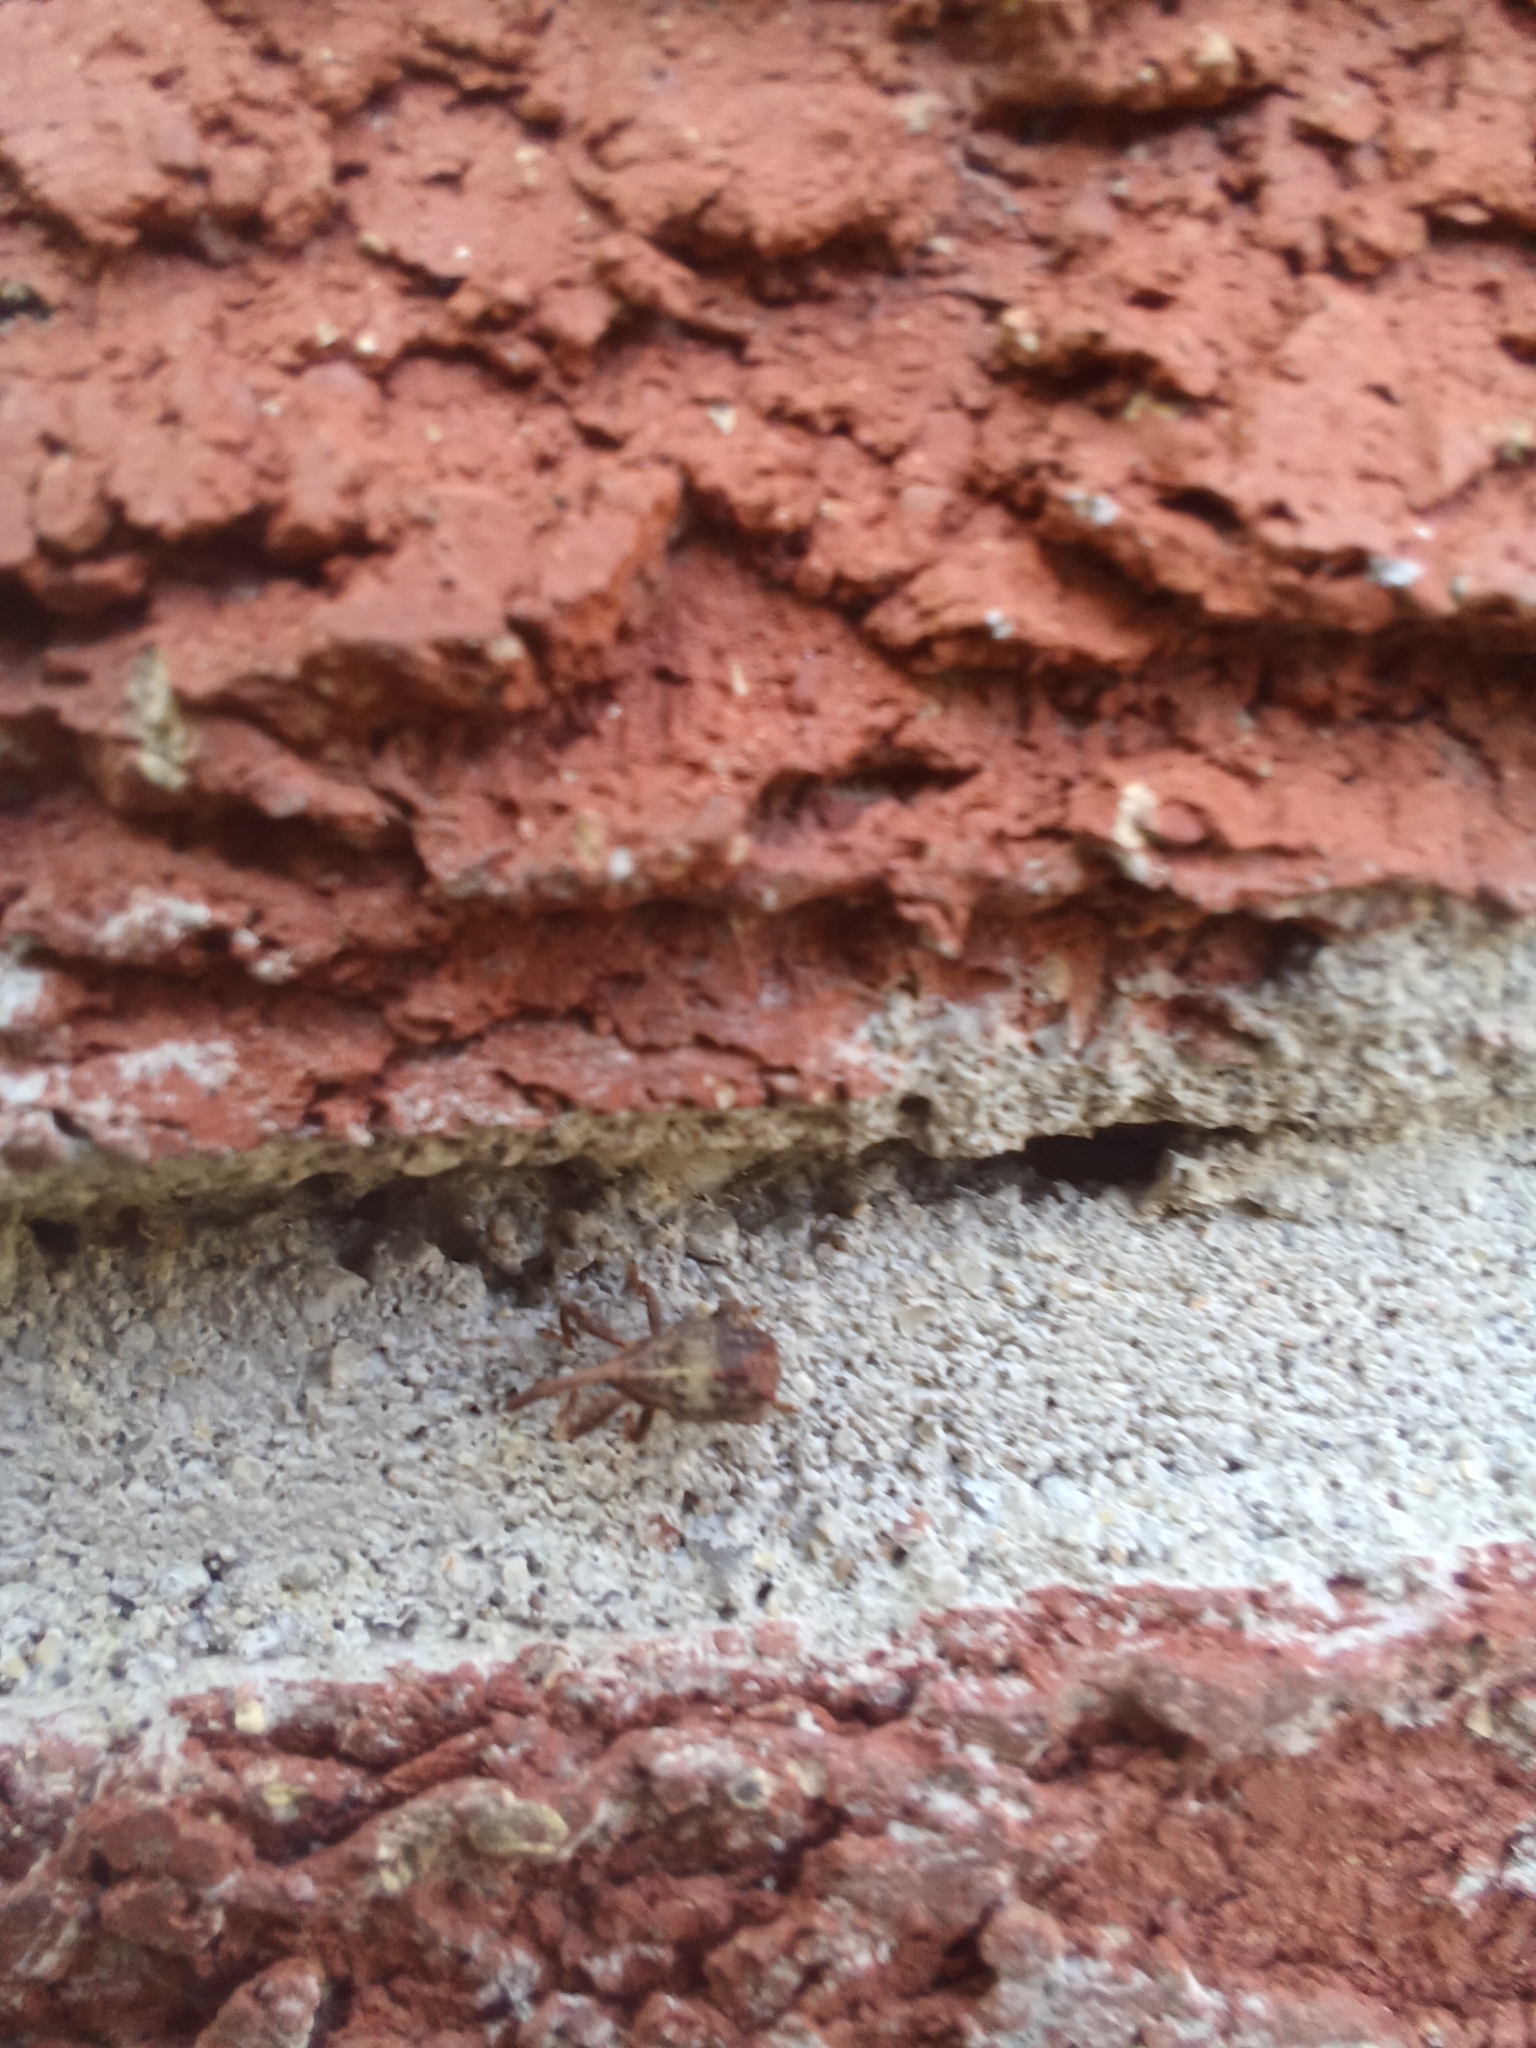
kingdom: Animalia
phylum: Arthropoda
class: Insecta
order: Coleoptera
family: Curculionidae
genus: Anthonomus
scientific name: Anthonomus quadrigibbus
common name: Apple curculio
